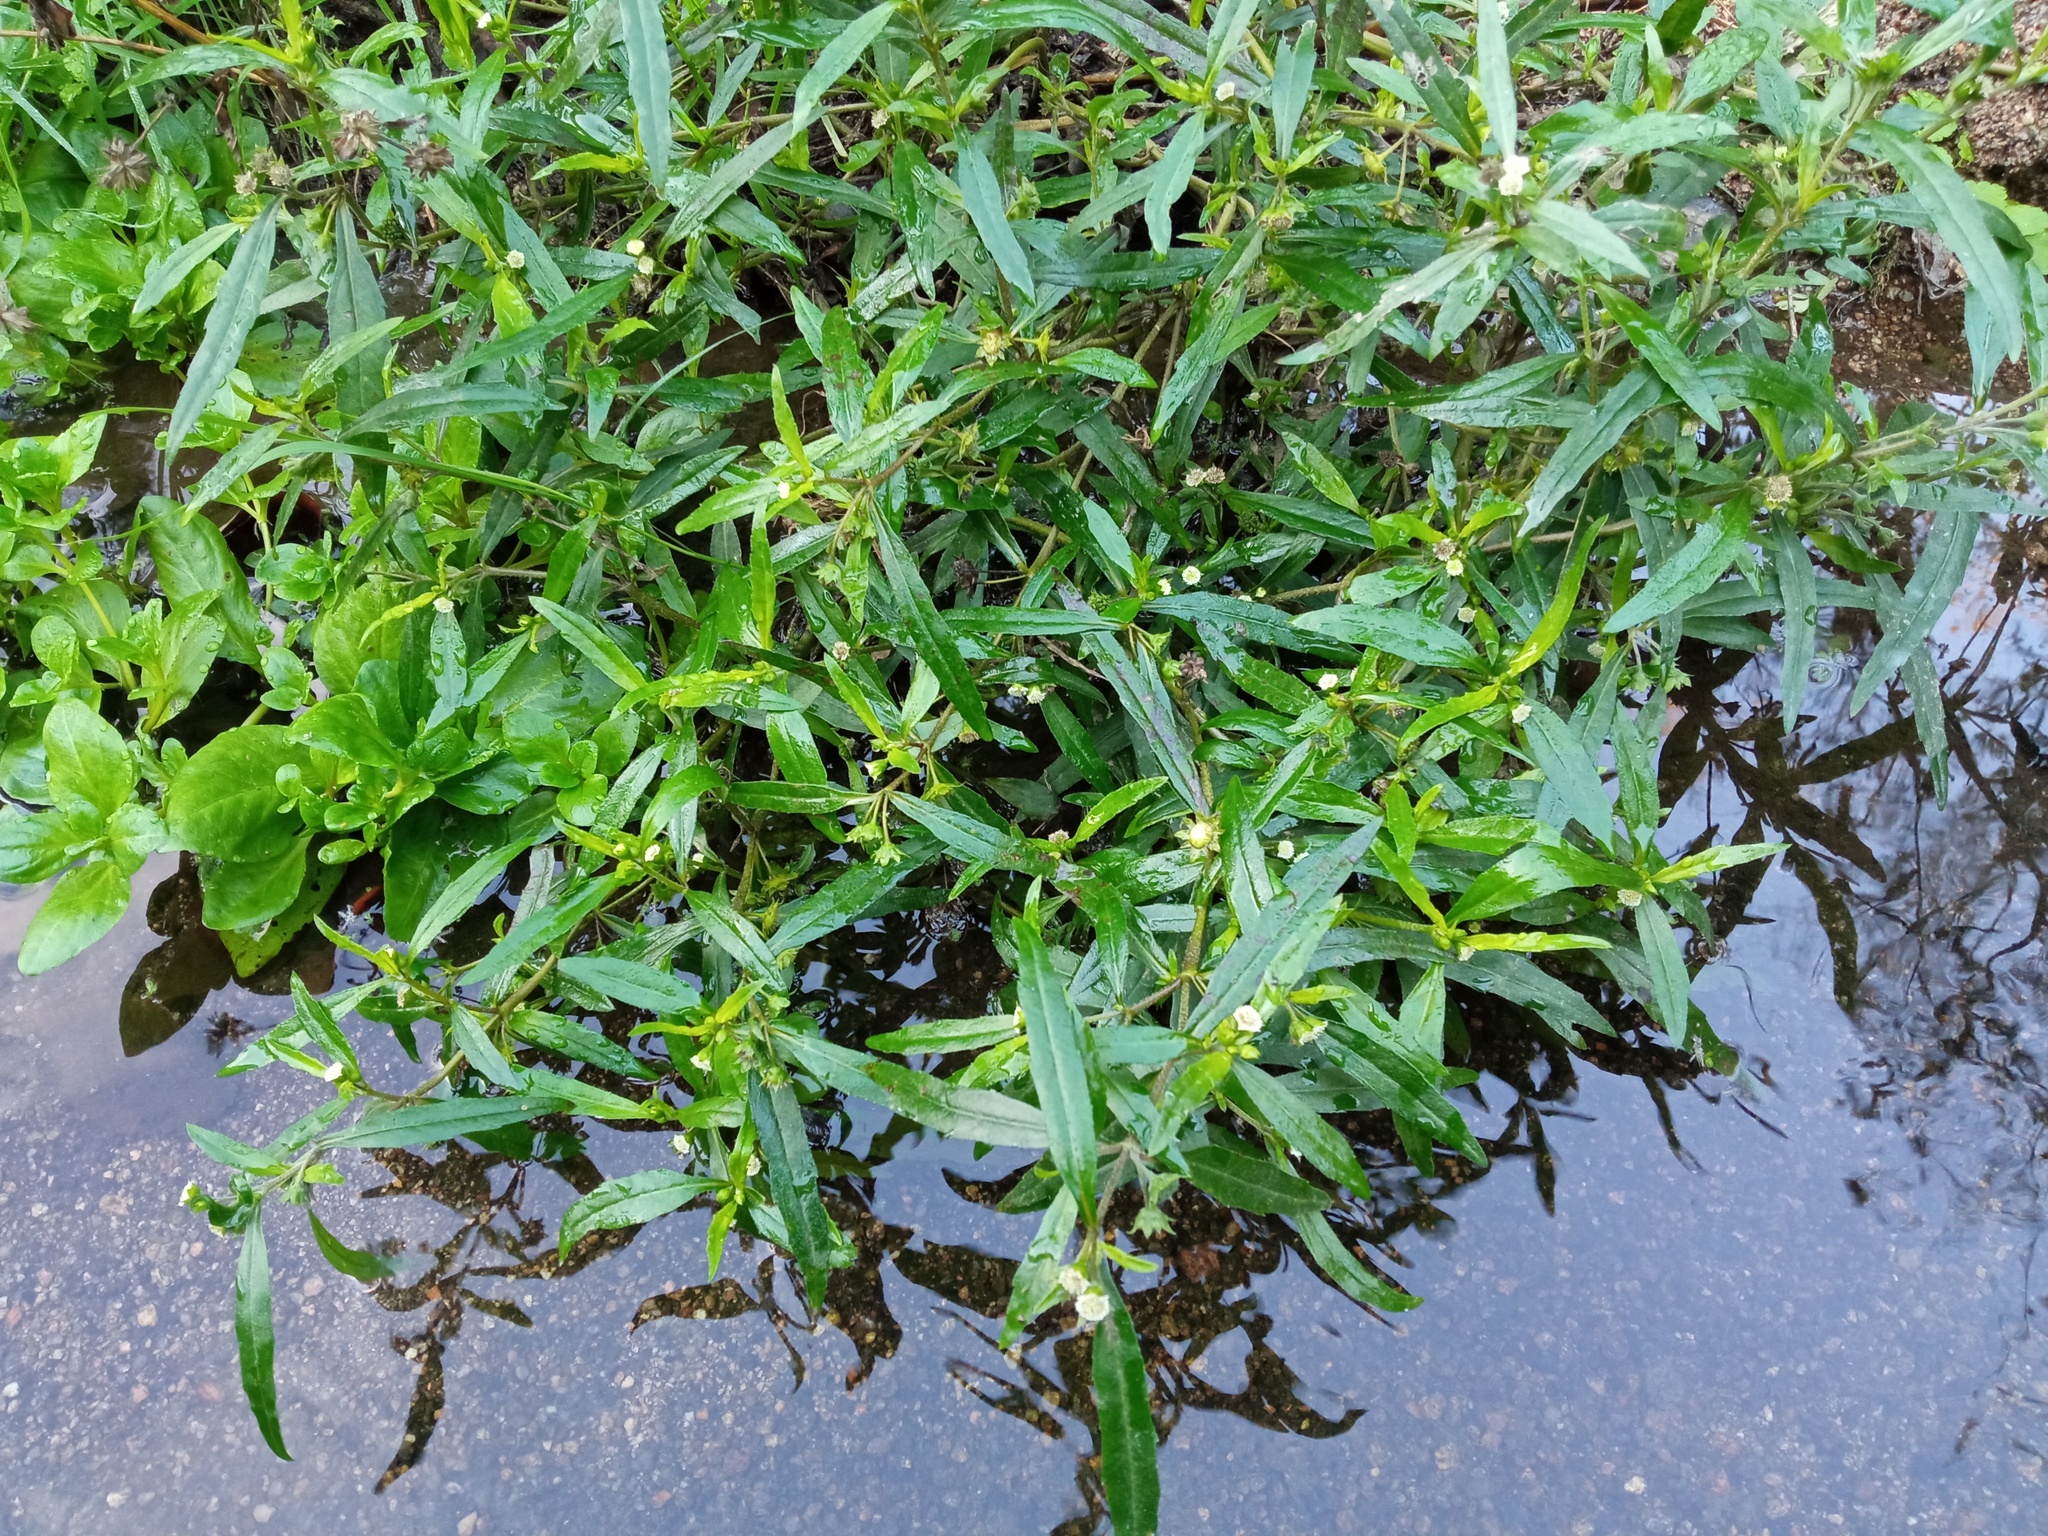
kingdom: Plantae
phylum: Tracheophyta
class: Magnoliopsida
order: Asterales
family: Asteraceae
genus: Eclipta
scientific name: Eclipta prostrata
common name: False daisy
